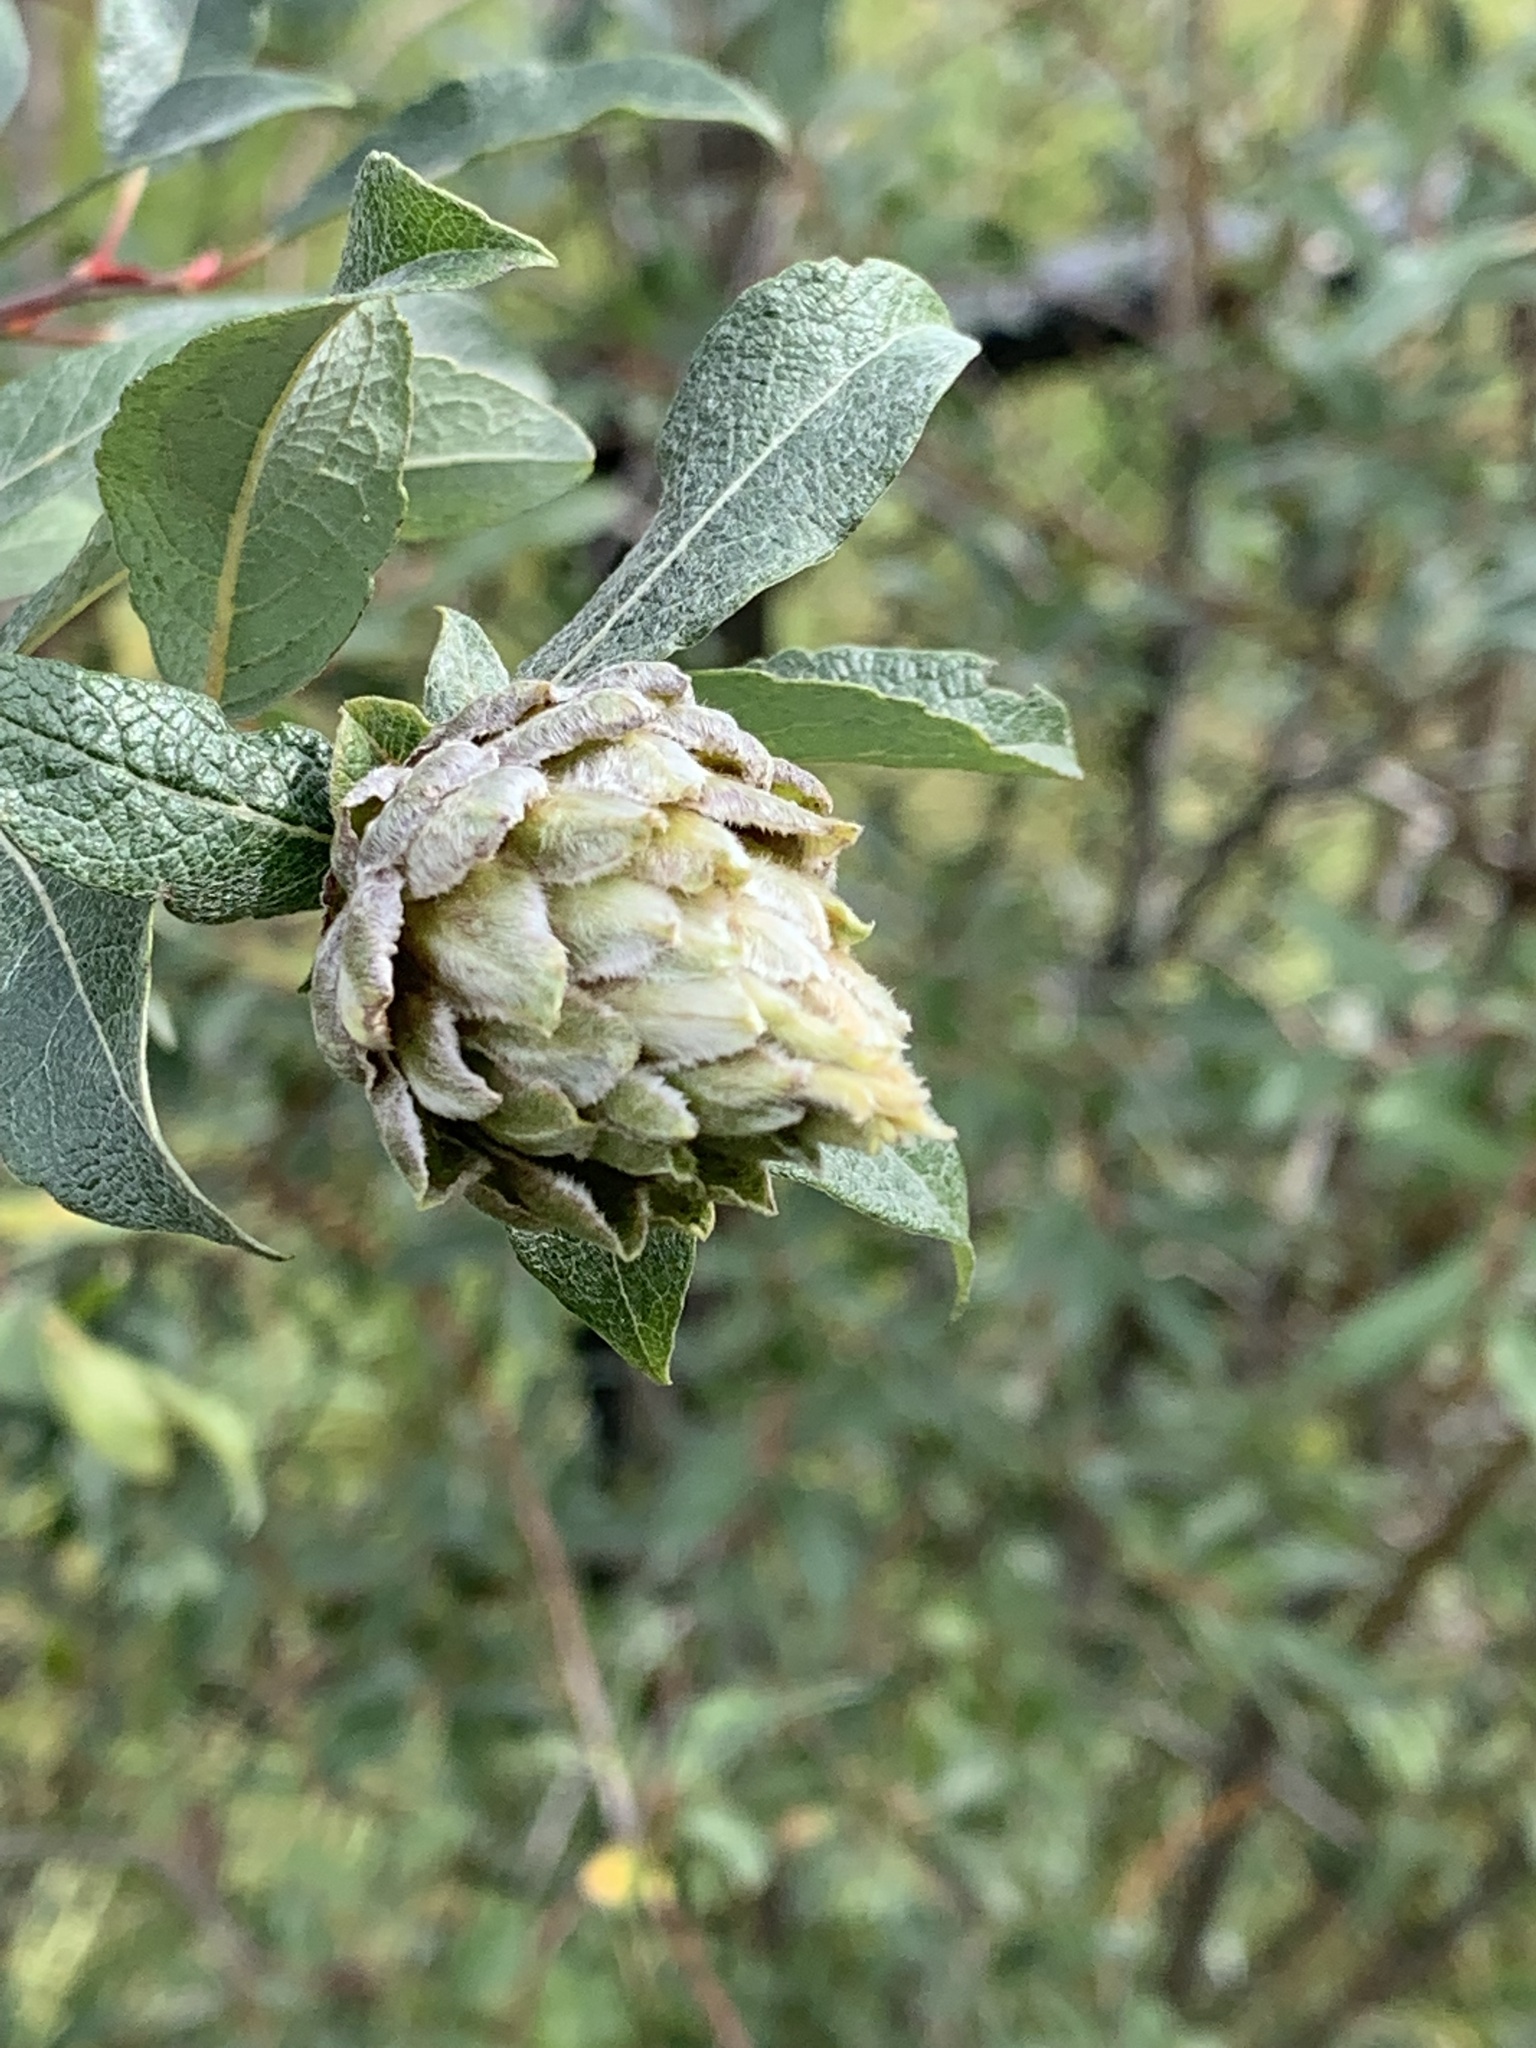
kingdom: Plantae
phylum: Tracheophyta
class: Magnoliopsida
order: Malpighiales
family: Salicaceae
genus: Salix
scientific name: Salix bebbiana
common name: Bebb's willow
